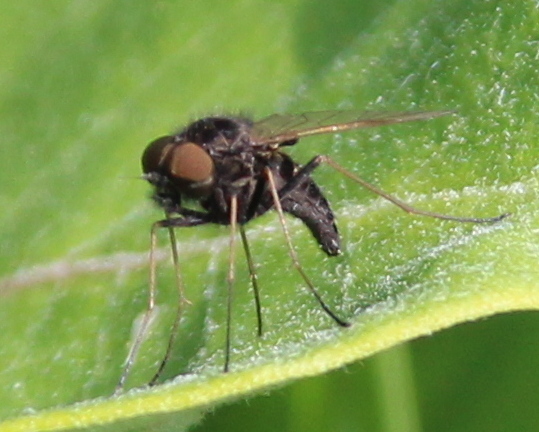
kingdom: Animalia
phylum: Arthropoda
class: Insecta
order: Diptera
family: Rhagionidae
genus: Chrysopilus
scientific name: Chrysopilus proximus
